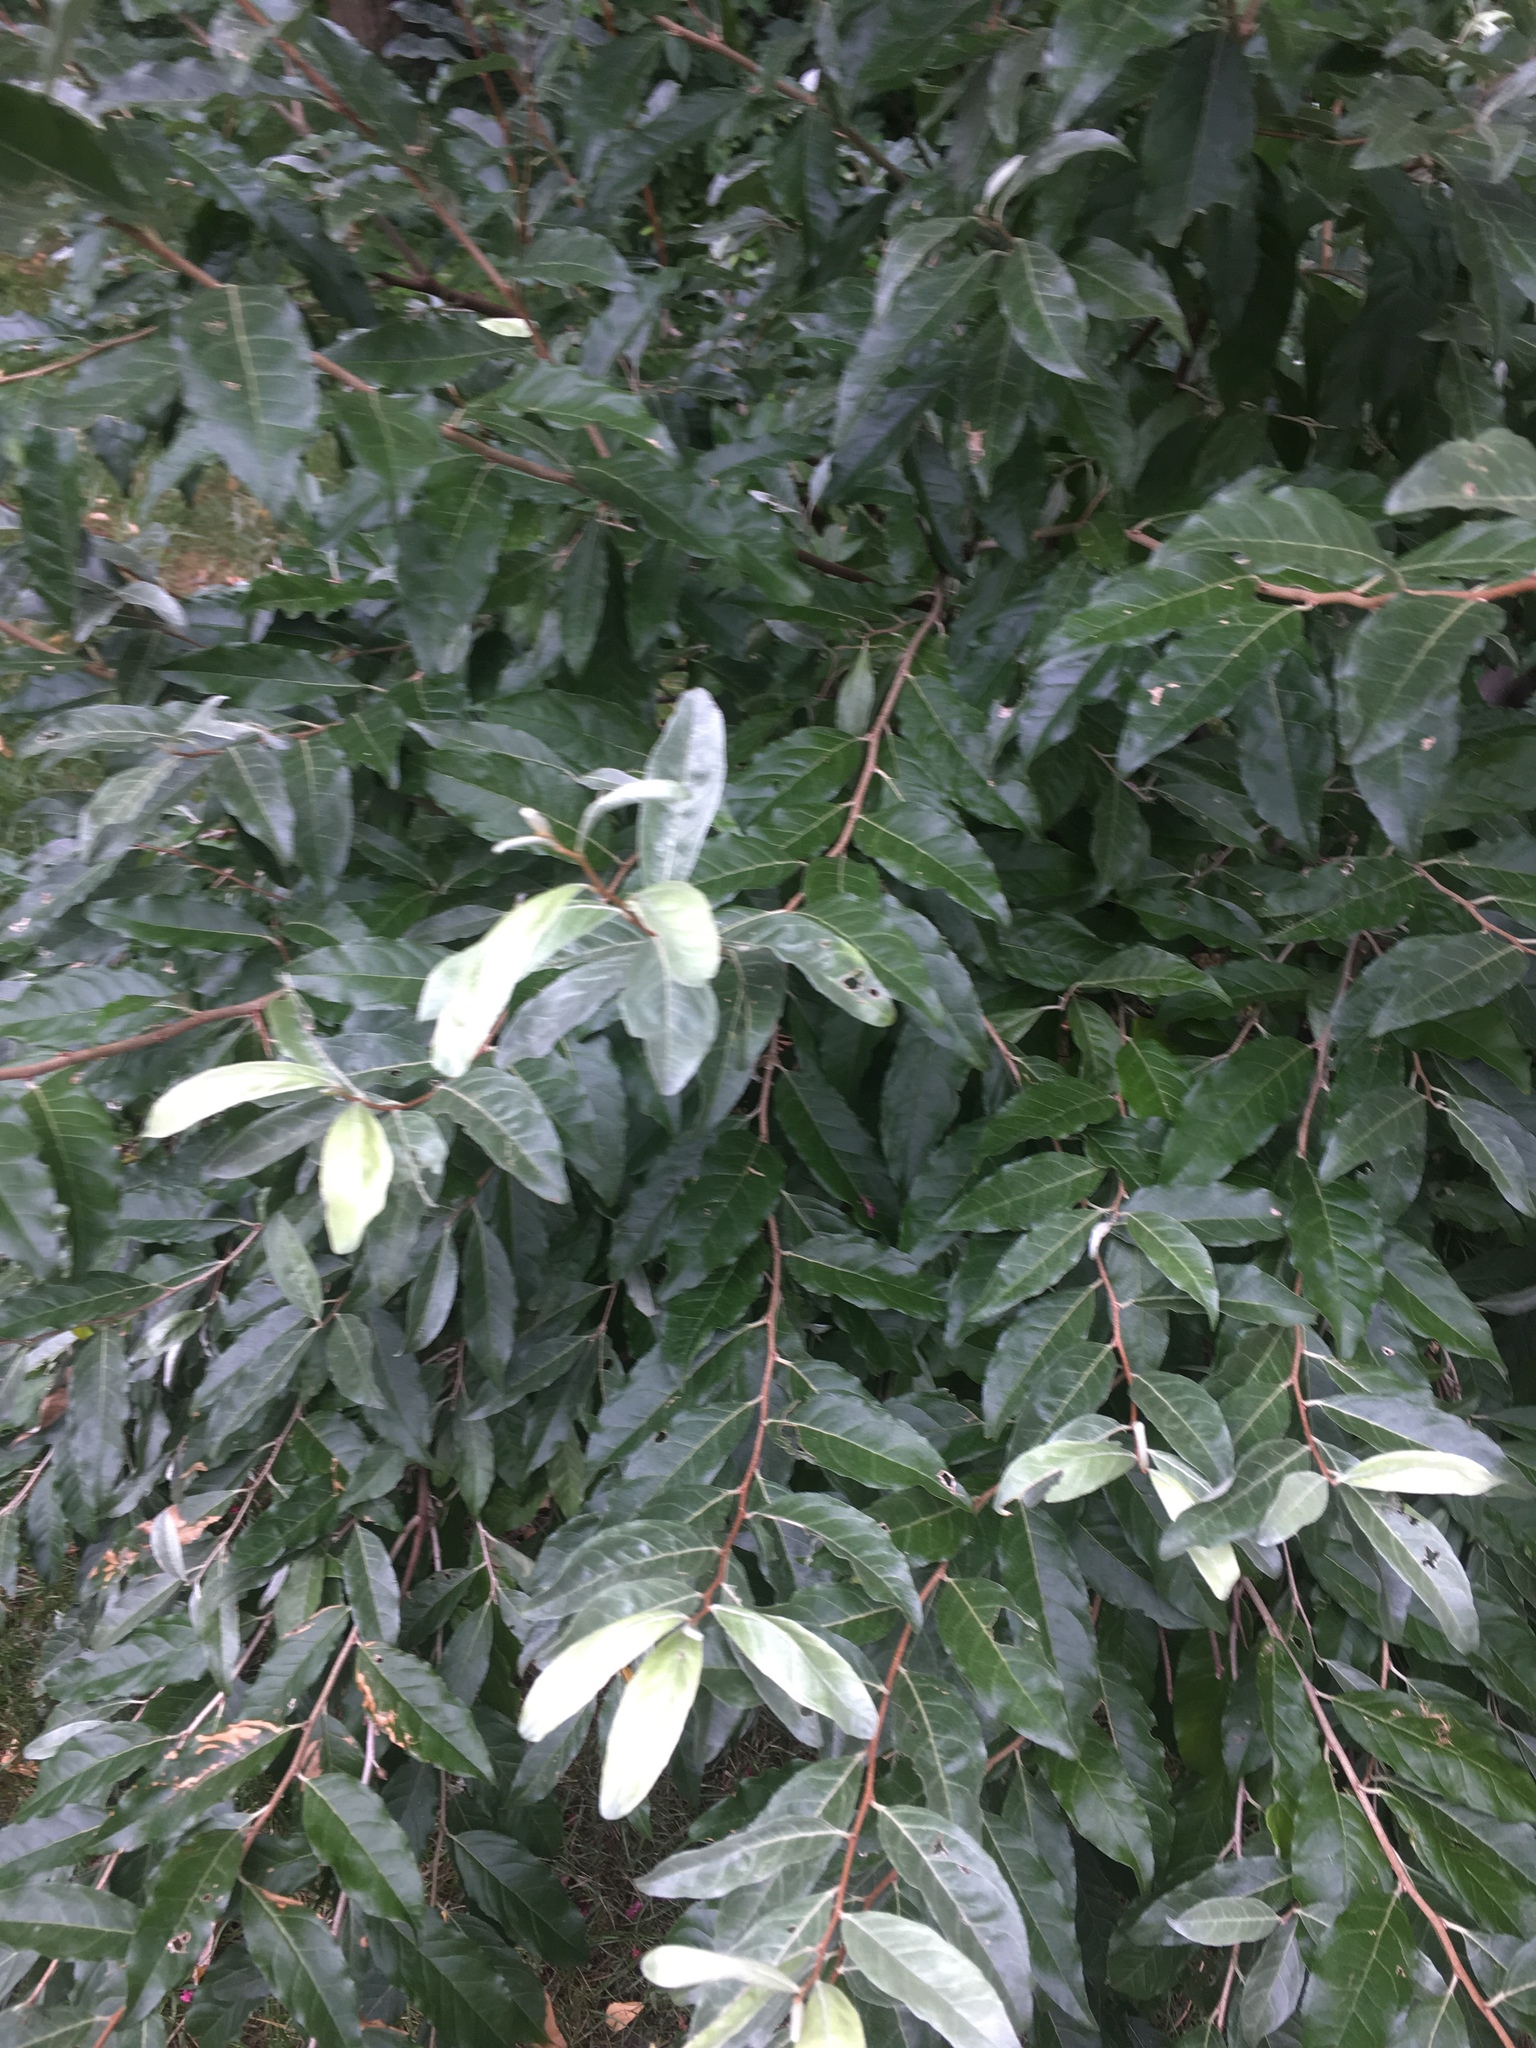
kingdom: Plantae
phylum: Tracheophyta
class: Magnoliopsida
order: Rosales
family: Elaeagnaceae
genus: Elaeagnus
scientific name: Elaeagnus umbellata
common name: Autumn olive
